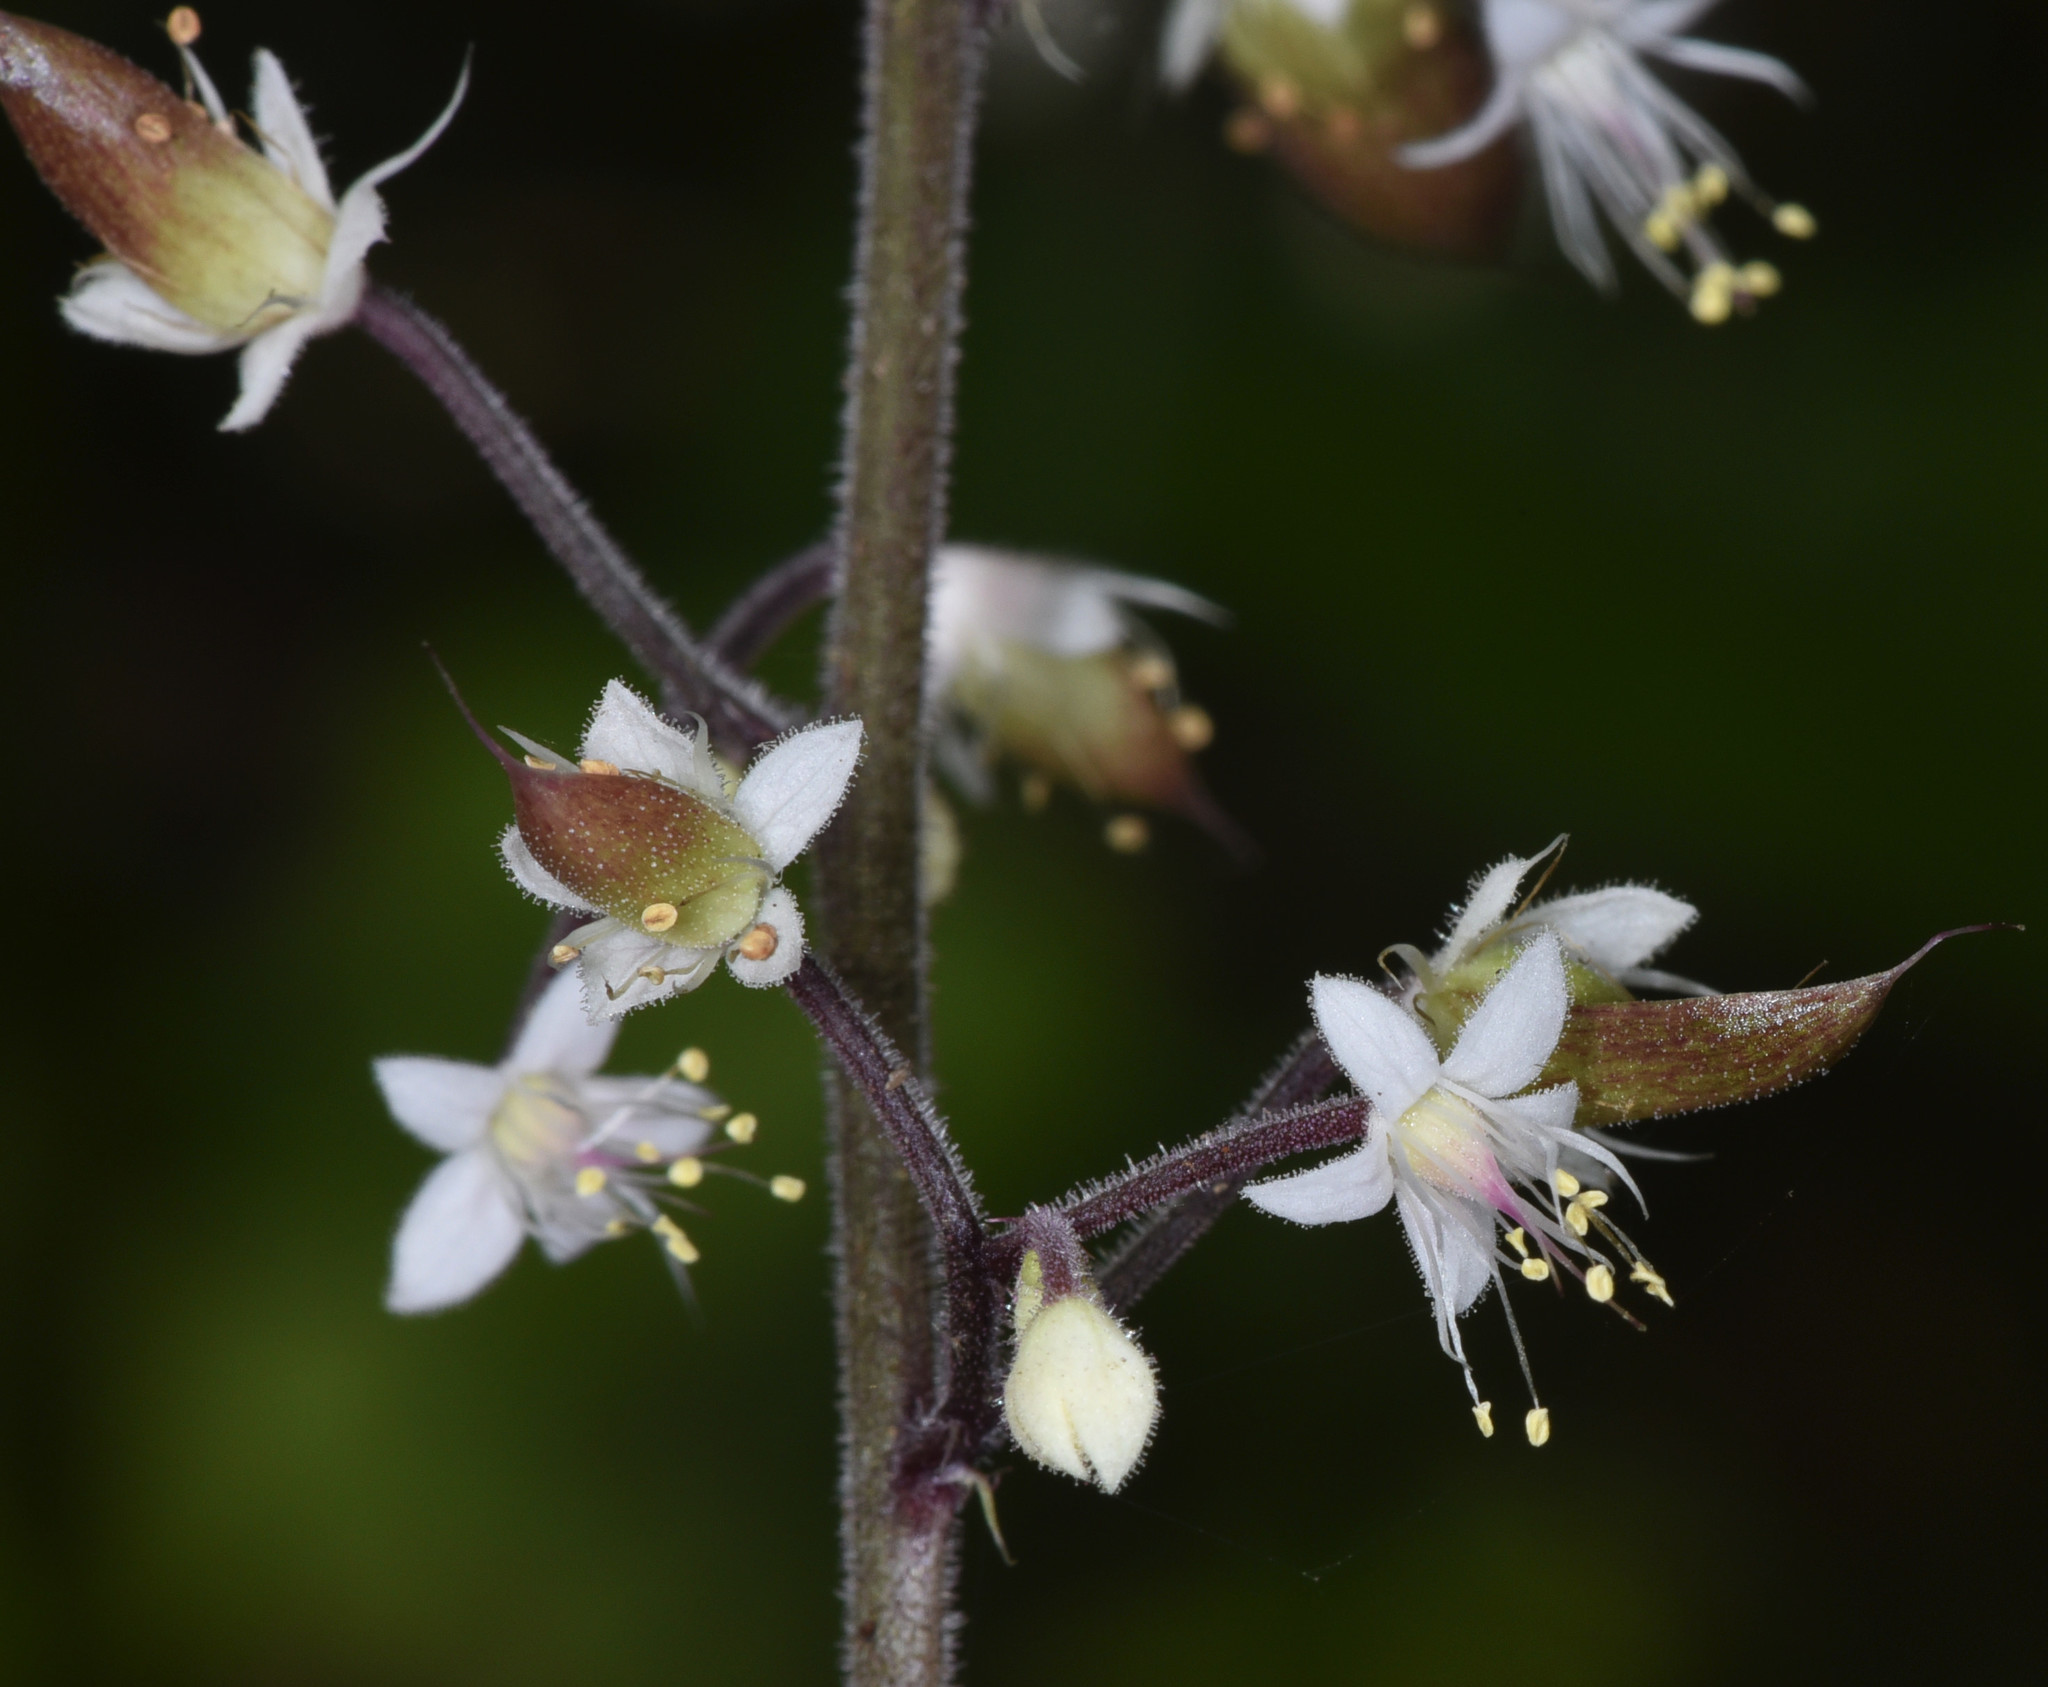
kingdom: Plantae
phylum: Tracheophyta
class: Magnoliopsida
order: Saxifragales
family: Saxifragaceae
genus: Tiarella
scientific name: Tiarella trifoliata
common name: Sugar-scoop
